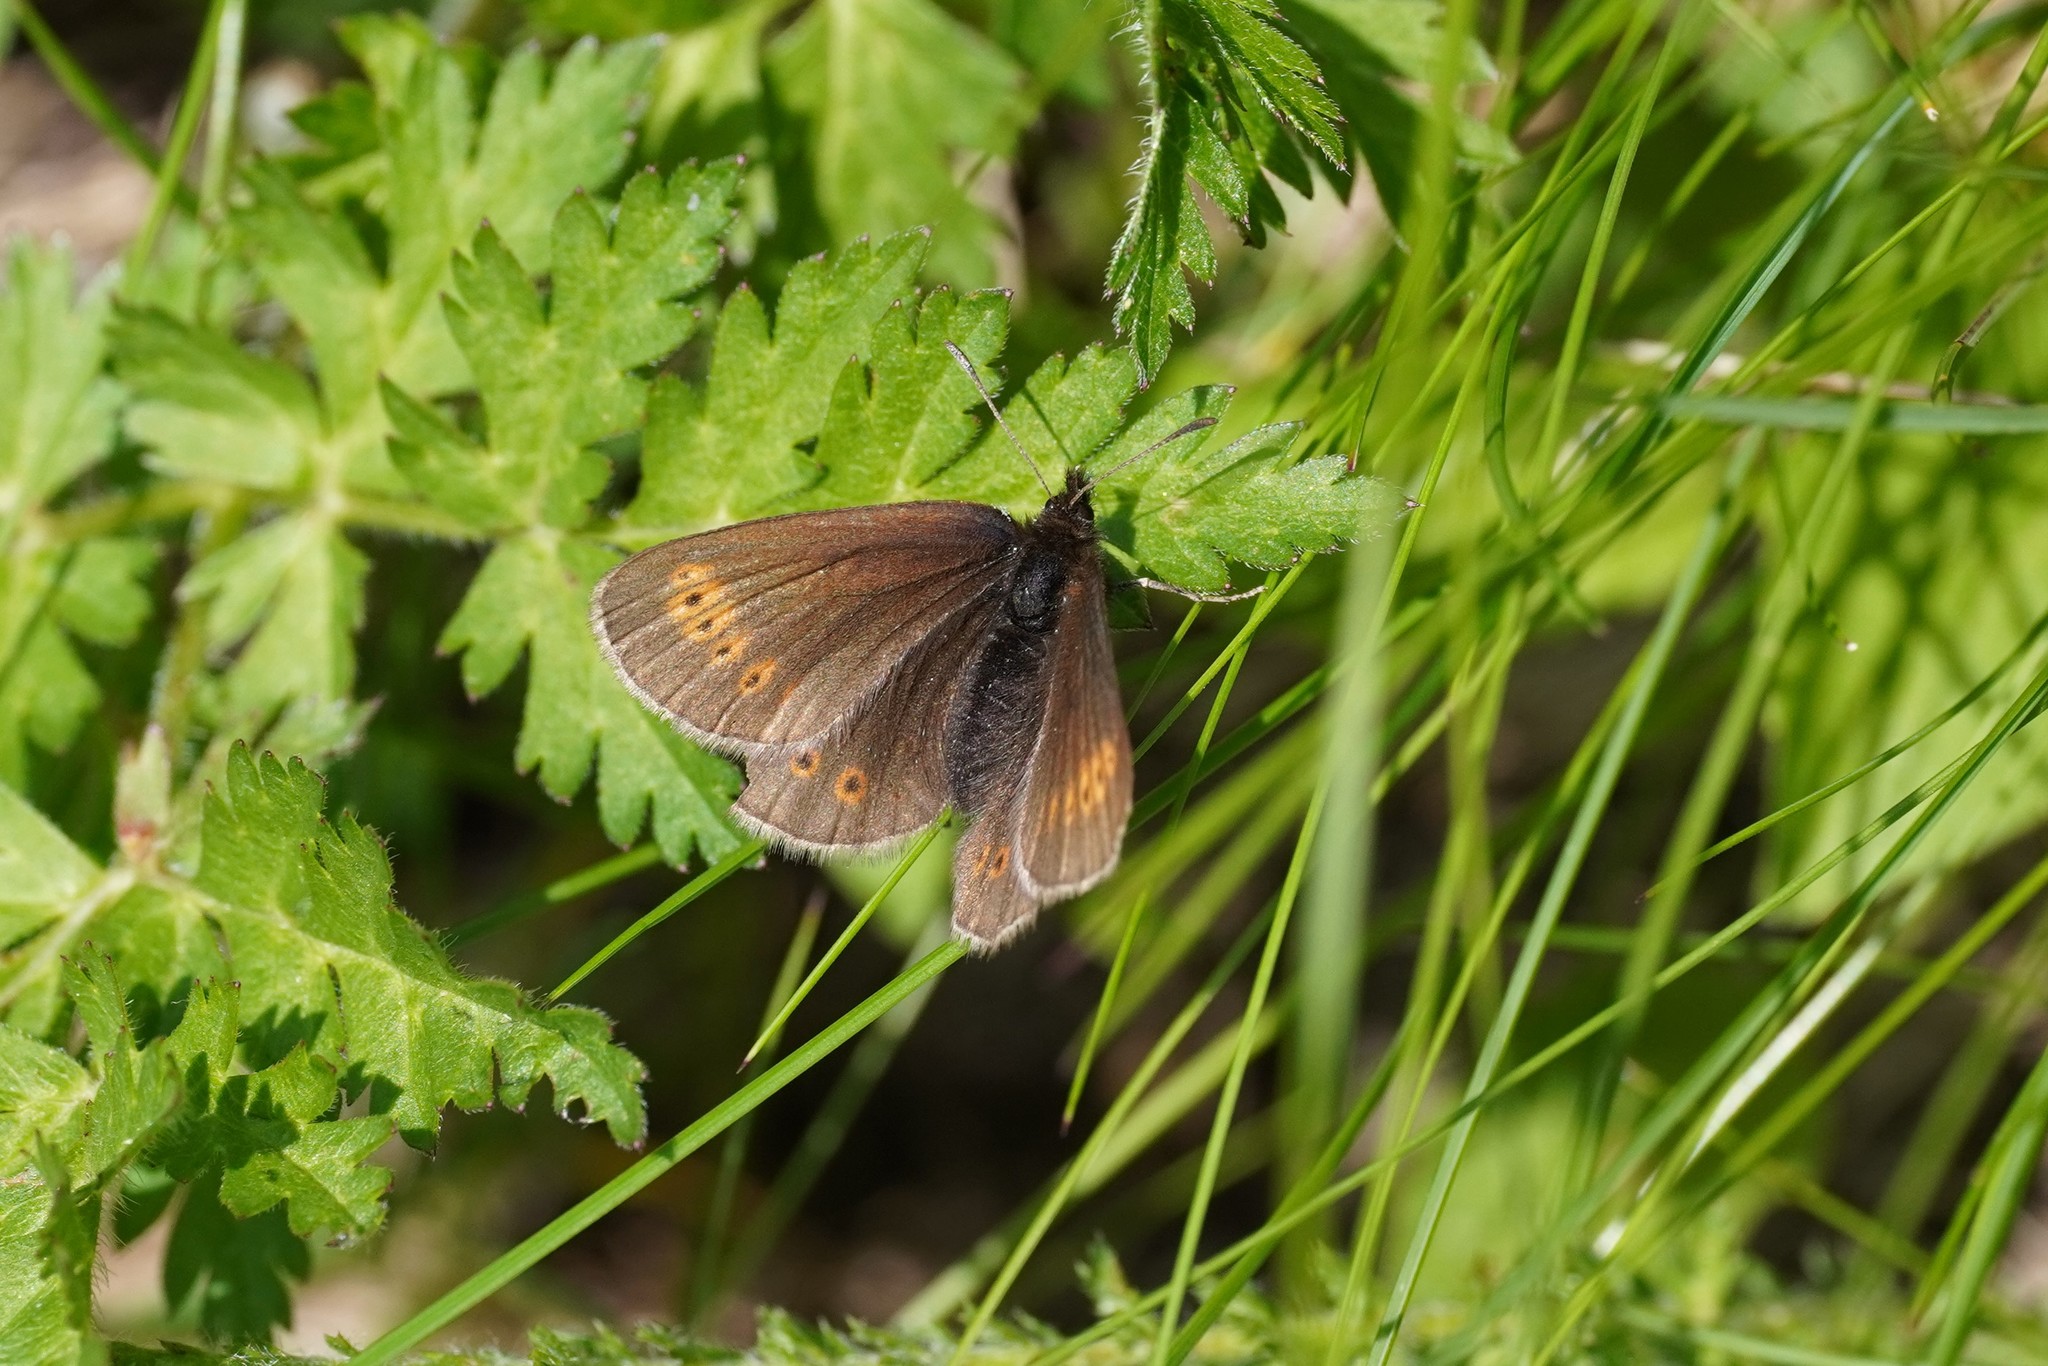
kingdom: Animalia
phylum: Arthropoda
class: Insecta
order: Lepidoptera
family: Nymphalidae
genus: Erebia
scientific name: Erebia flavofasciata
